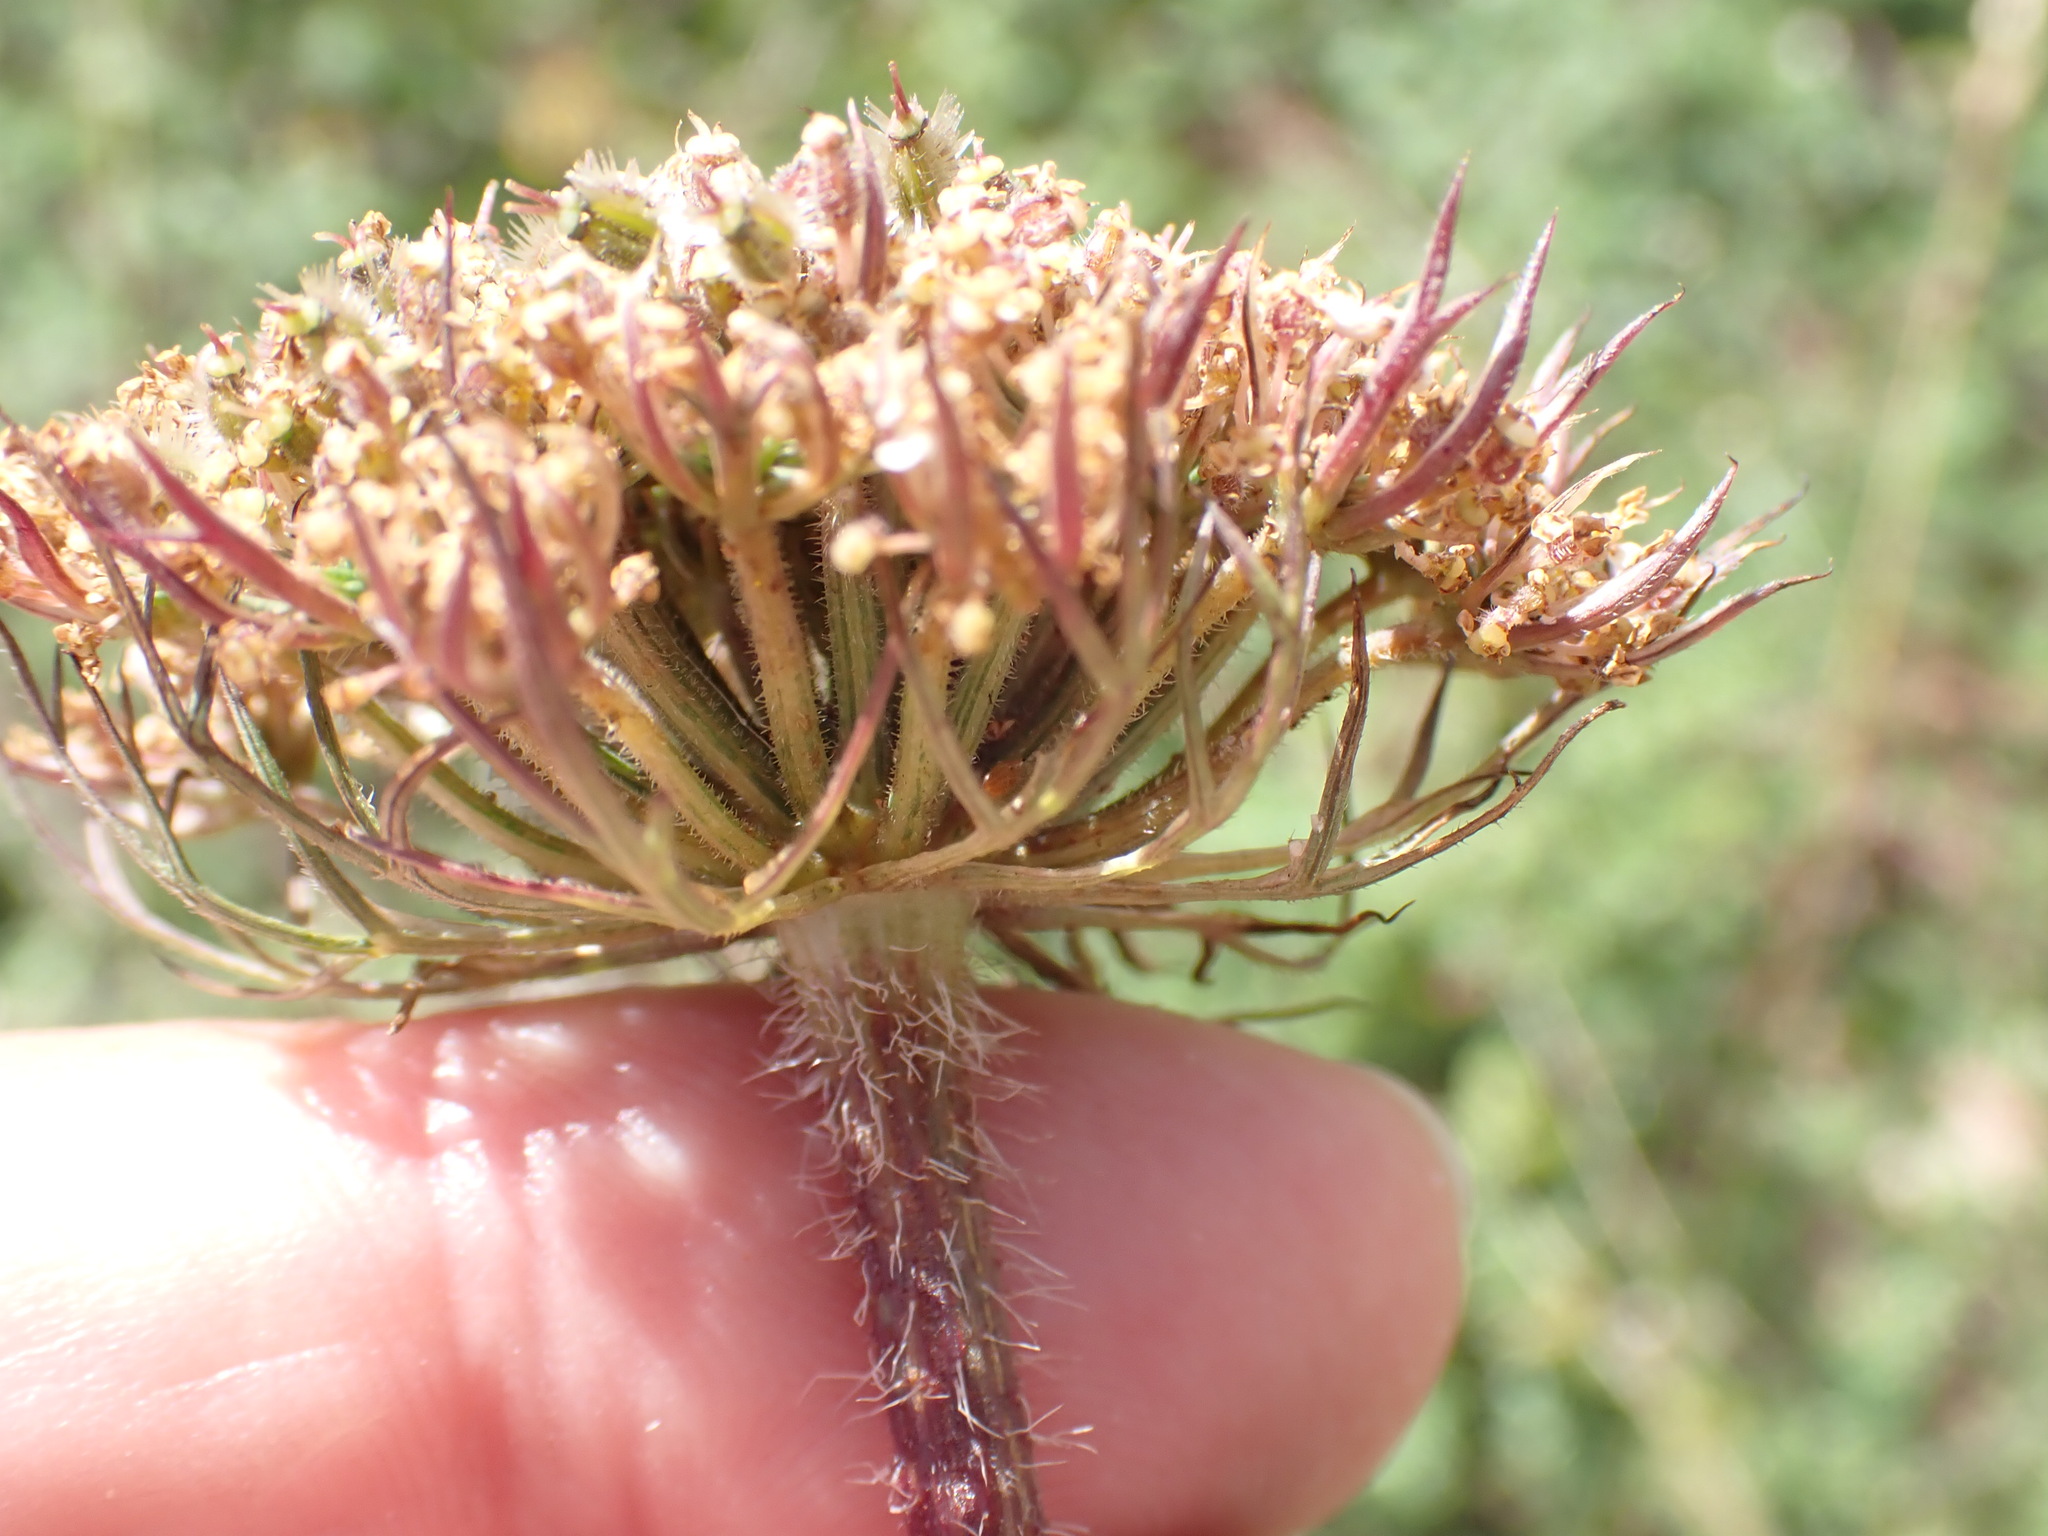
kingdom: Plantae
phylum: Tracheophyta
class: Magnoliopsida
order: Apiales
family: Apiaceae
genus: Daucus
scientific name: Daucus carota
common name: Wild carrot
